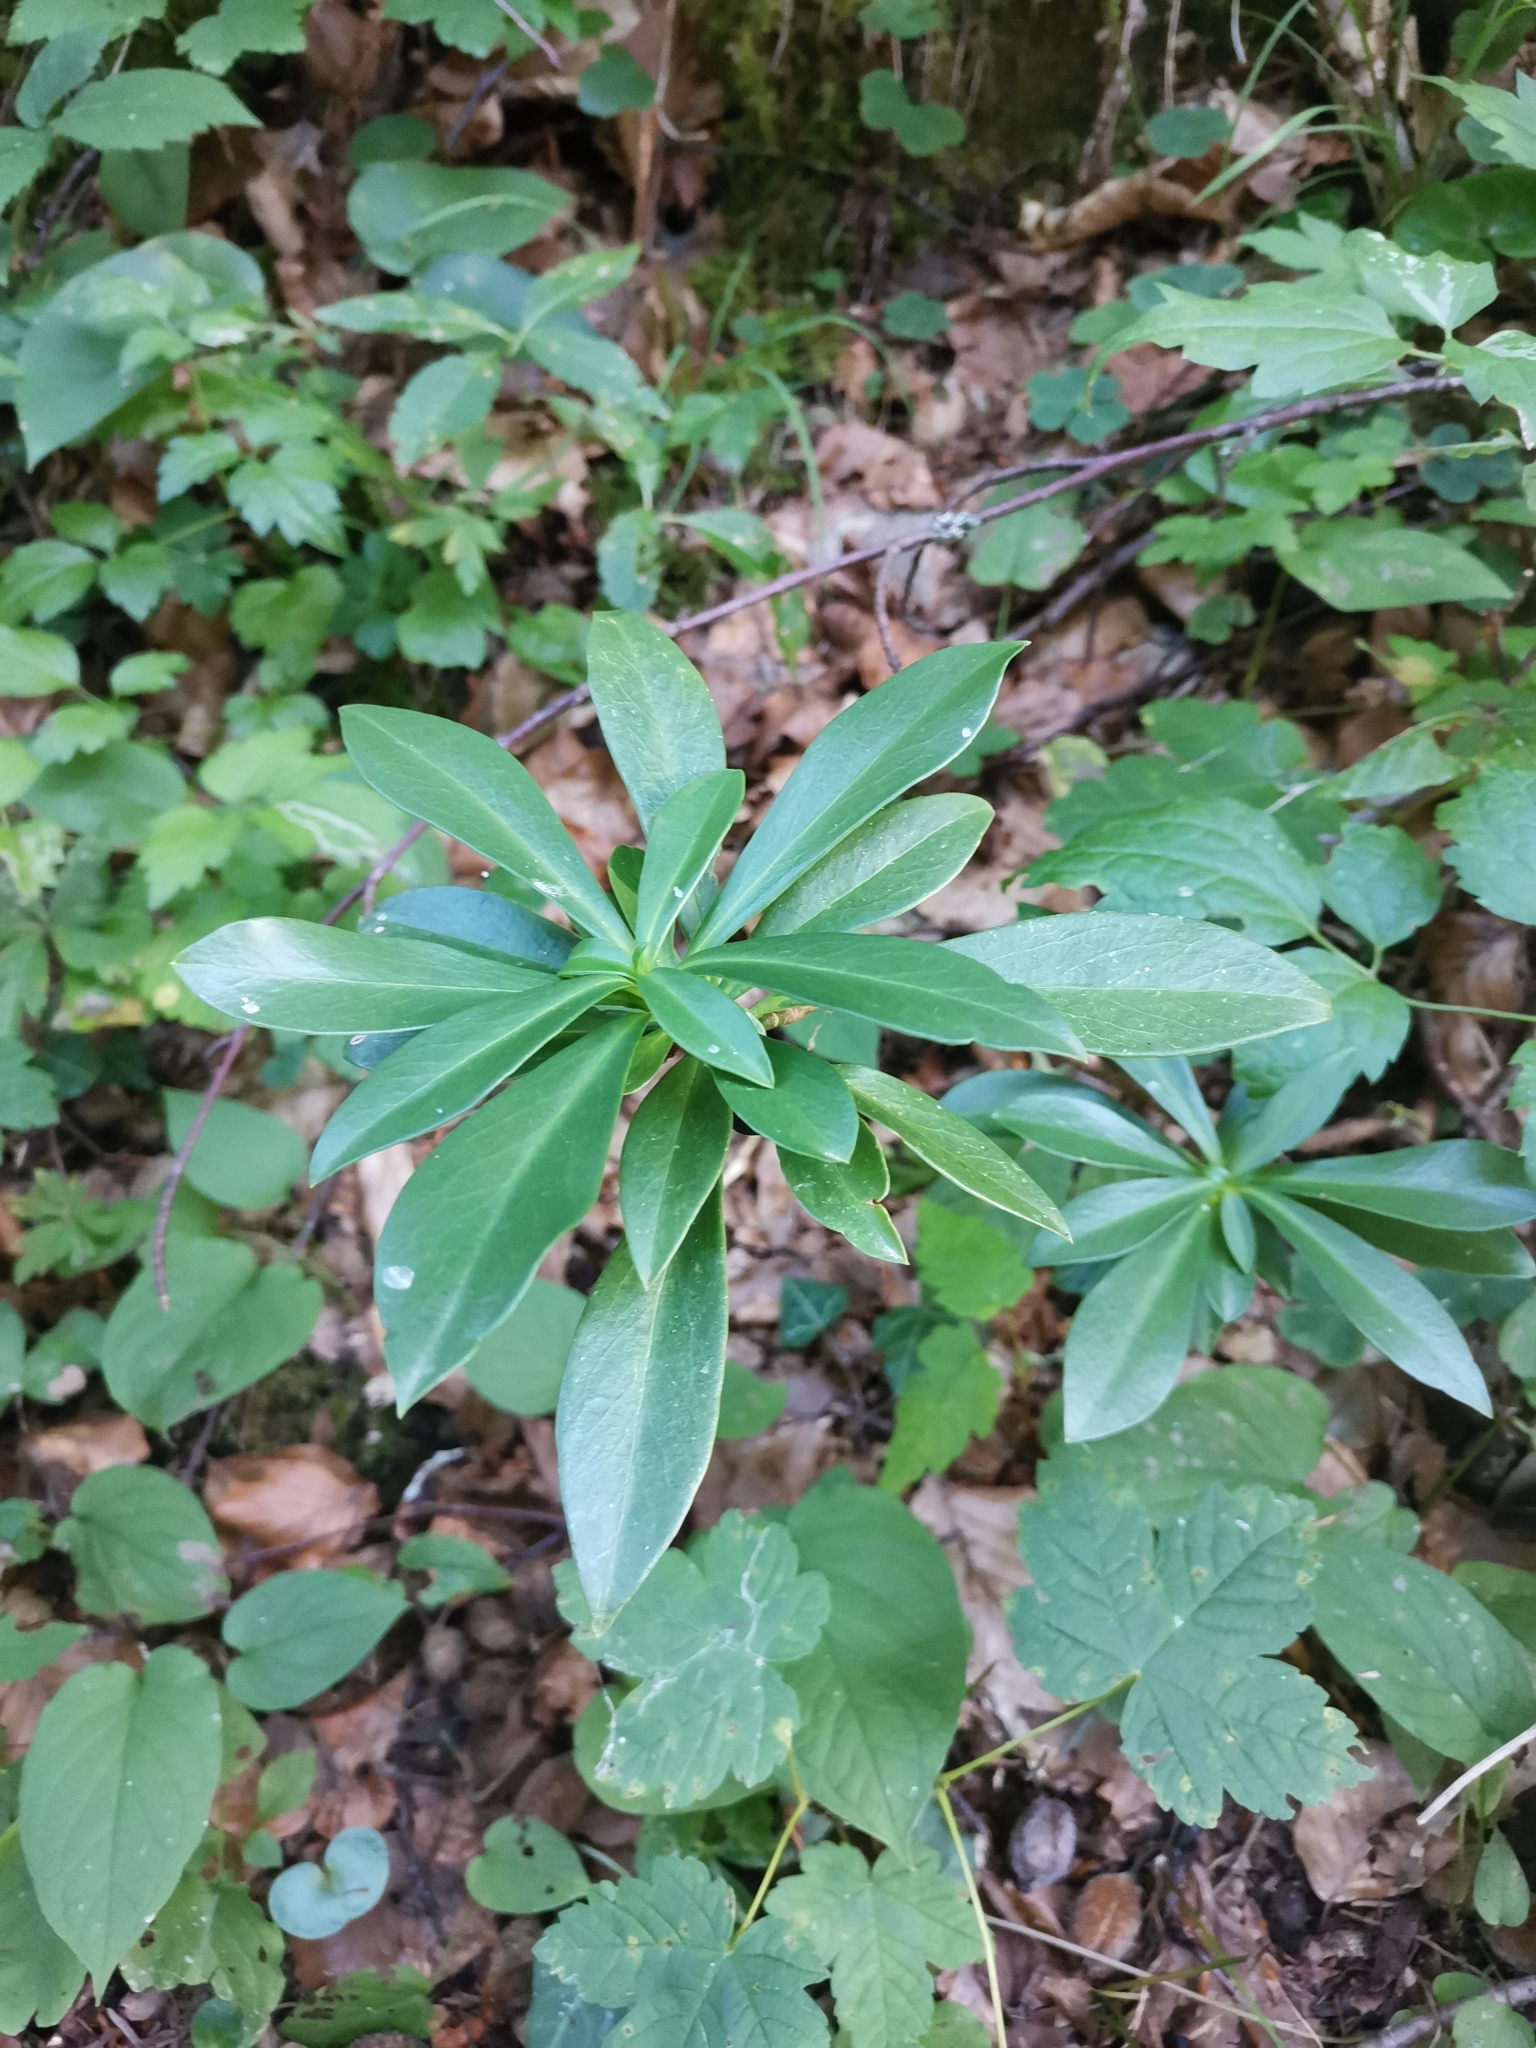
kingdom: Plantae
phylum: Tracheophyta
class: Magnoliopsida
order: Malvales
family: Thymelaeaceae
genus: Daphne
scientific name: Daphne laureola
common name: Spurge-laurel
